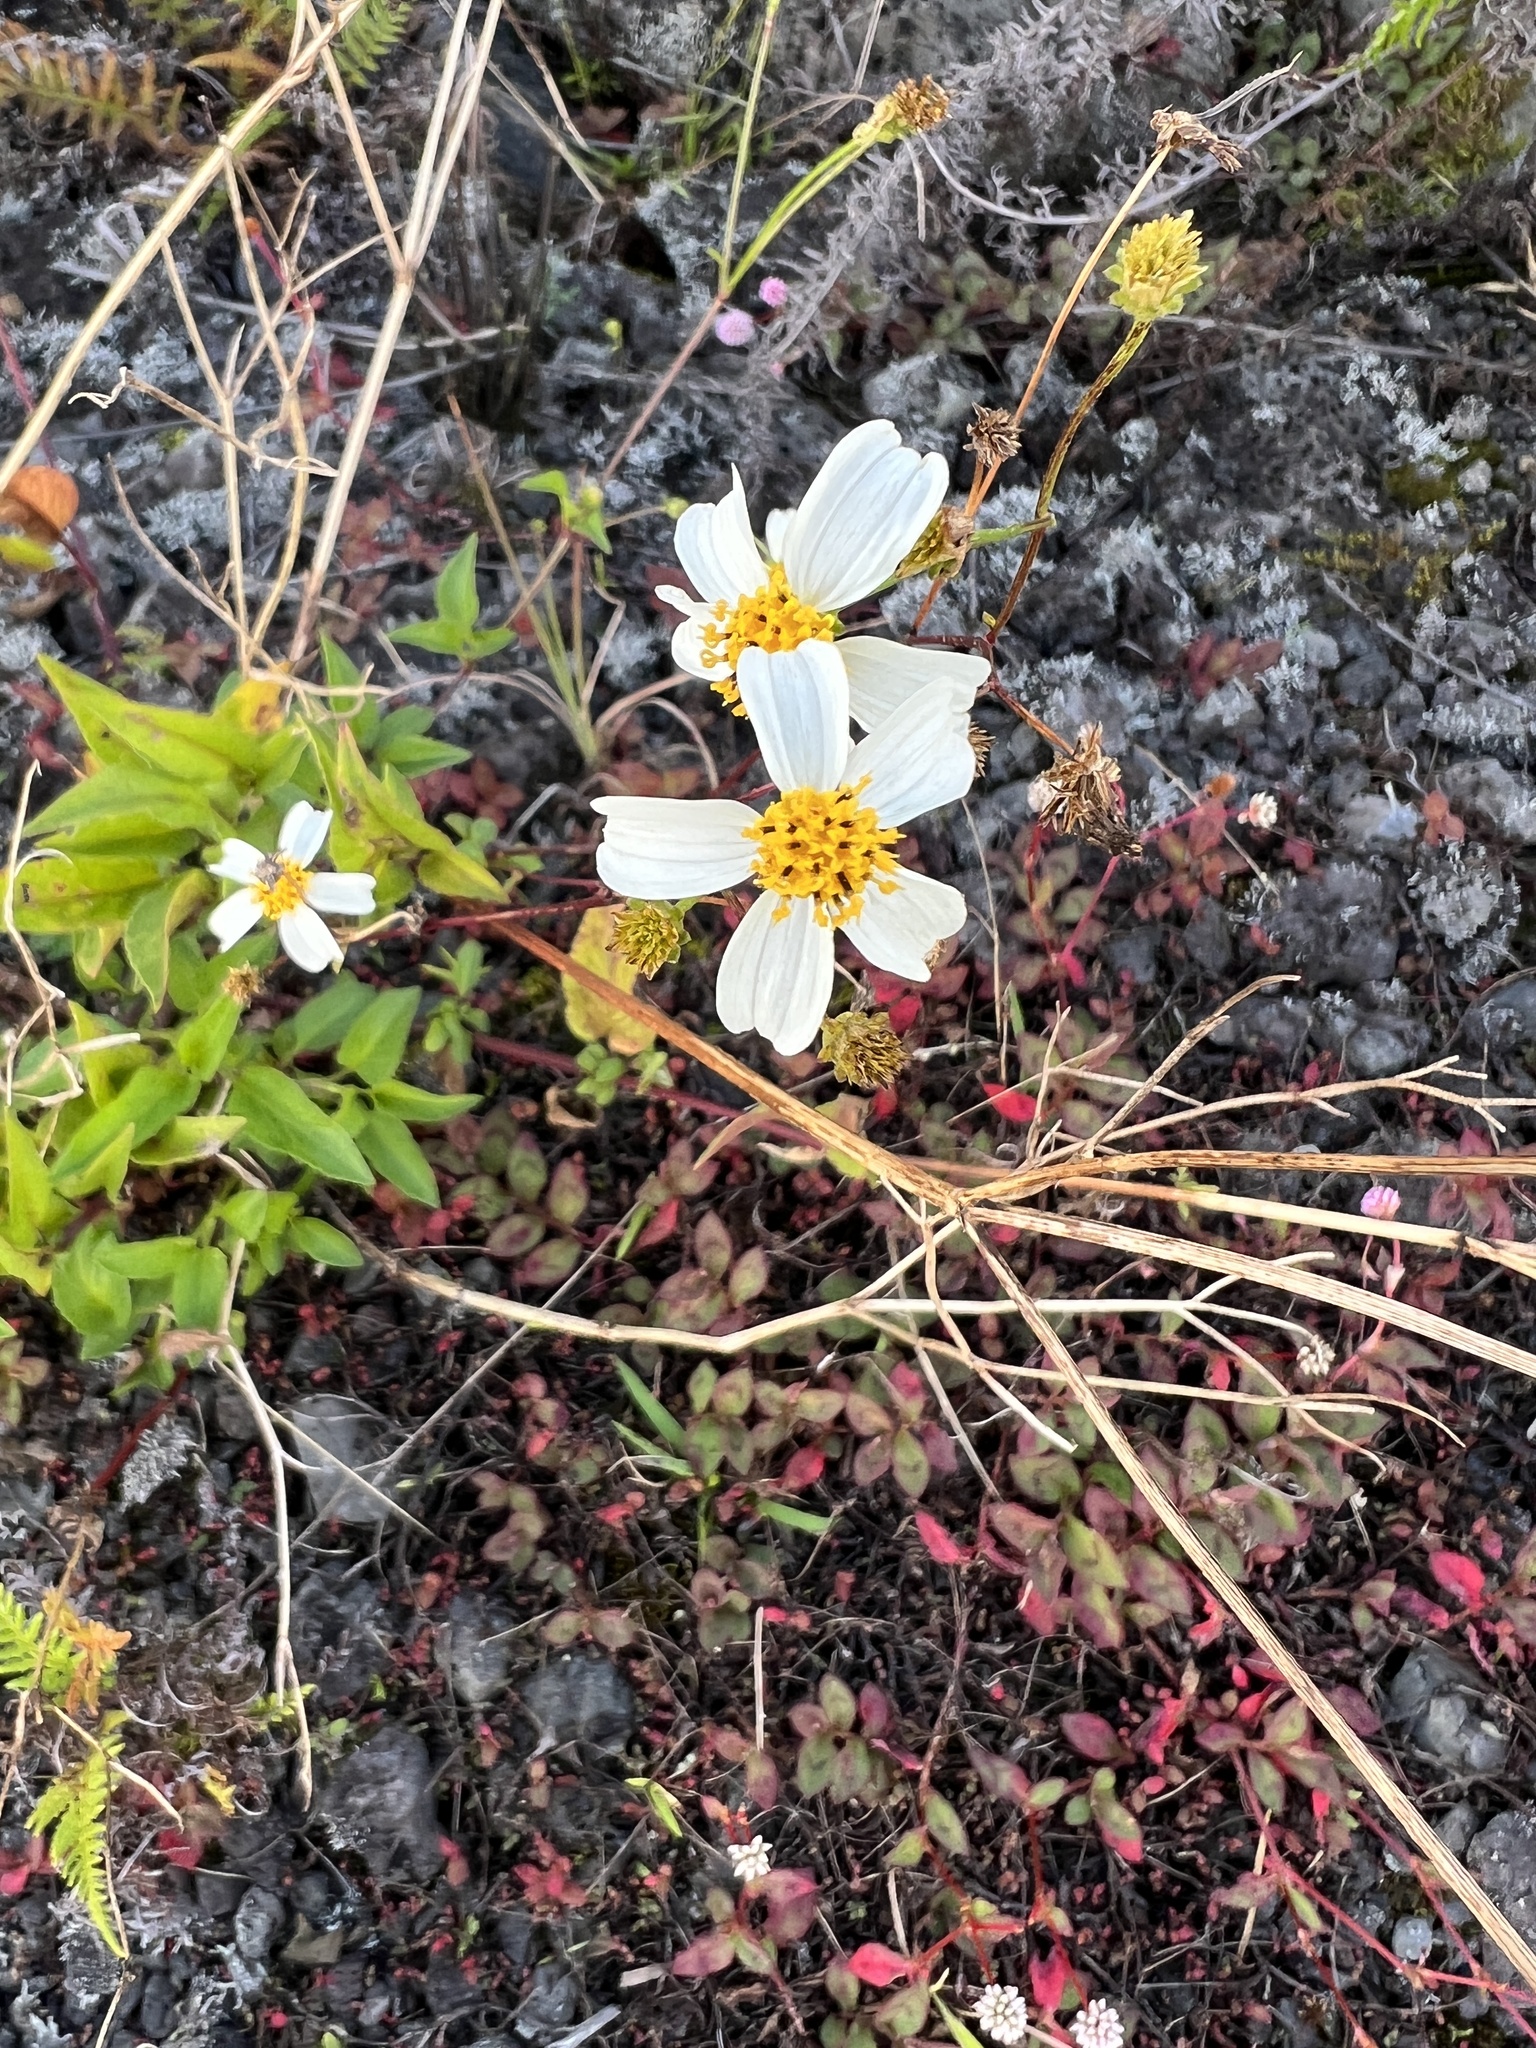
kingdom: Plantae
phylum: Tracheophyta
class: Magnoliopsida
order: Asterales
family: Asteraceae
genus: Bidens
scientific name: Bidens alba
